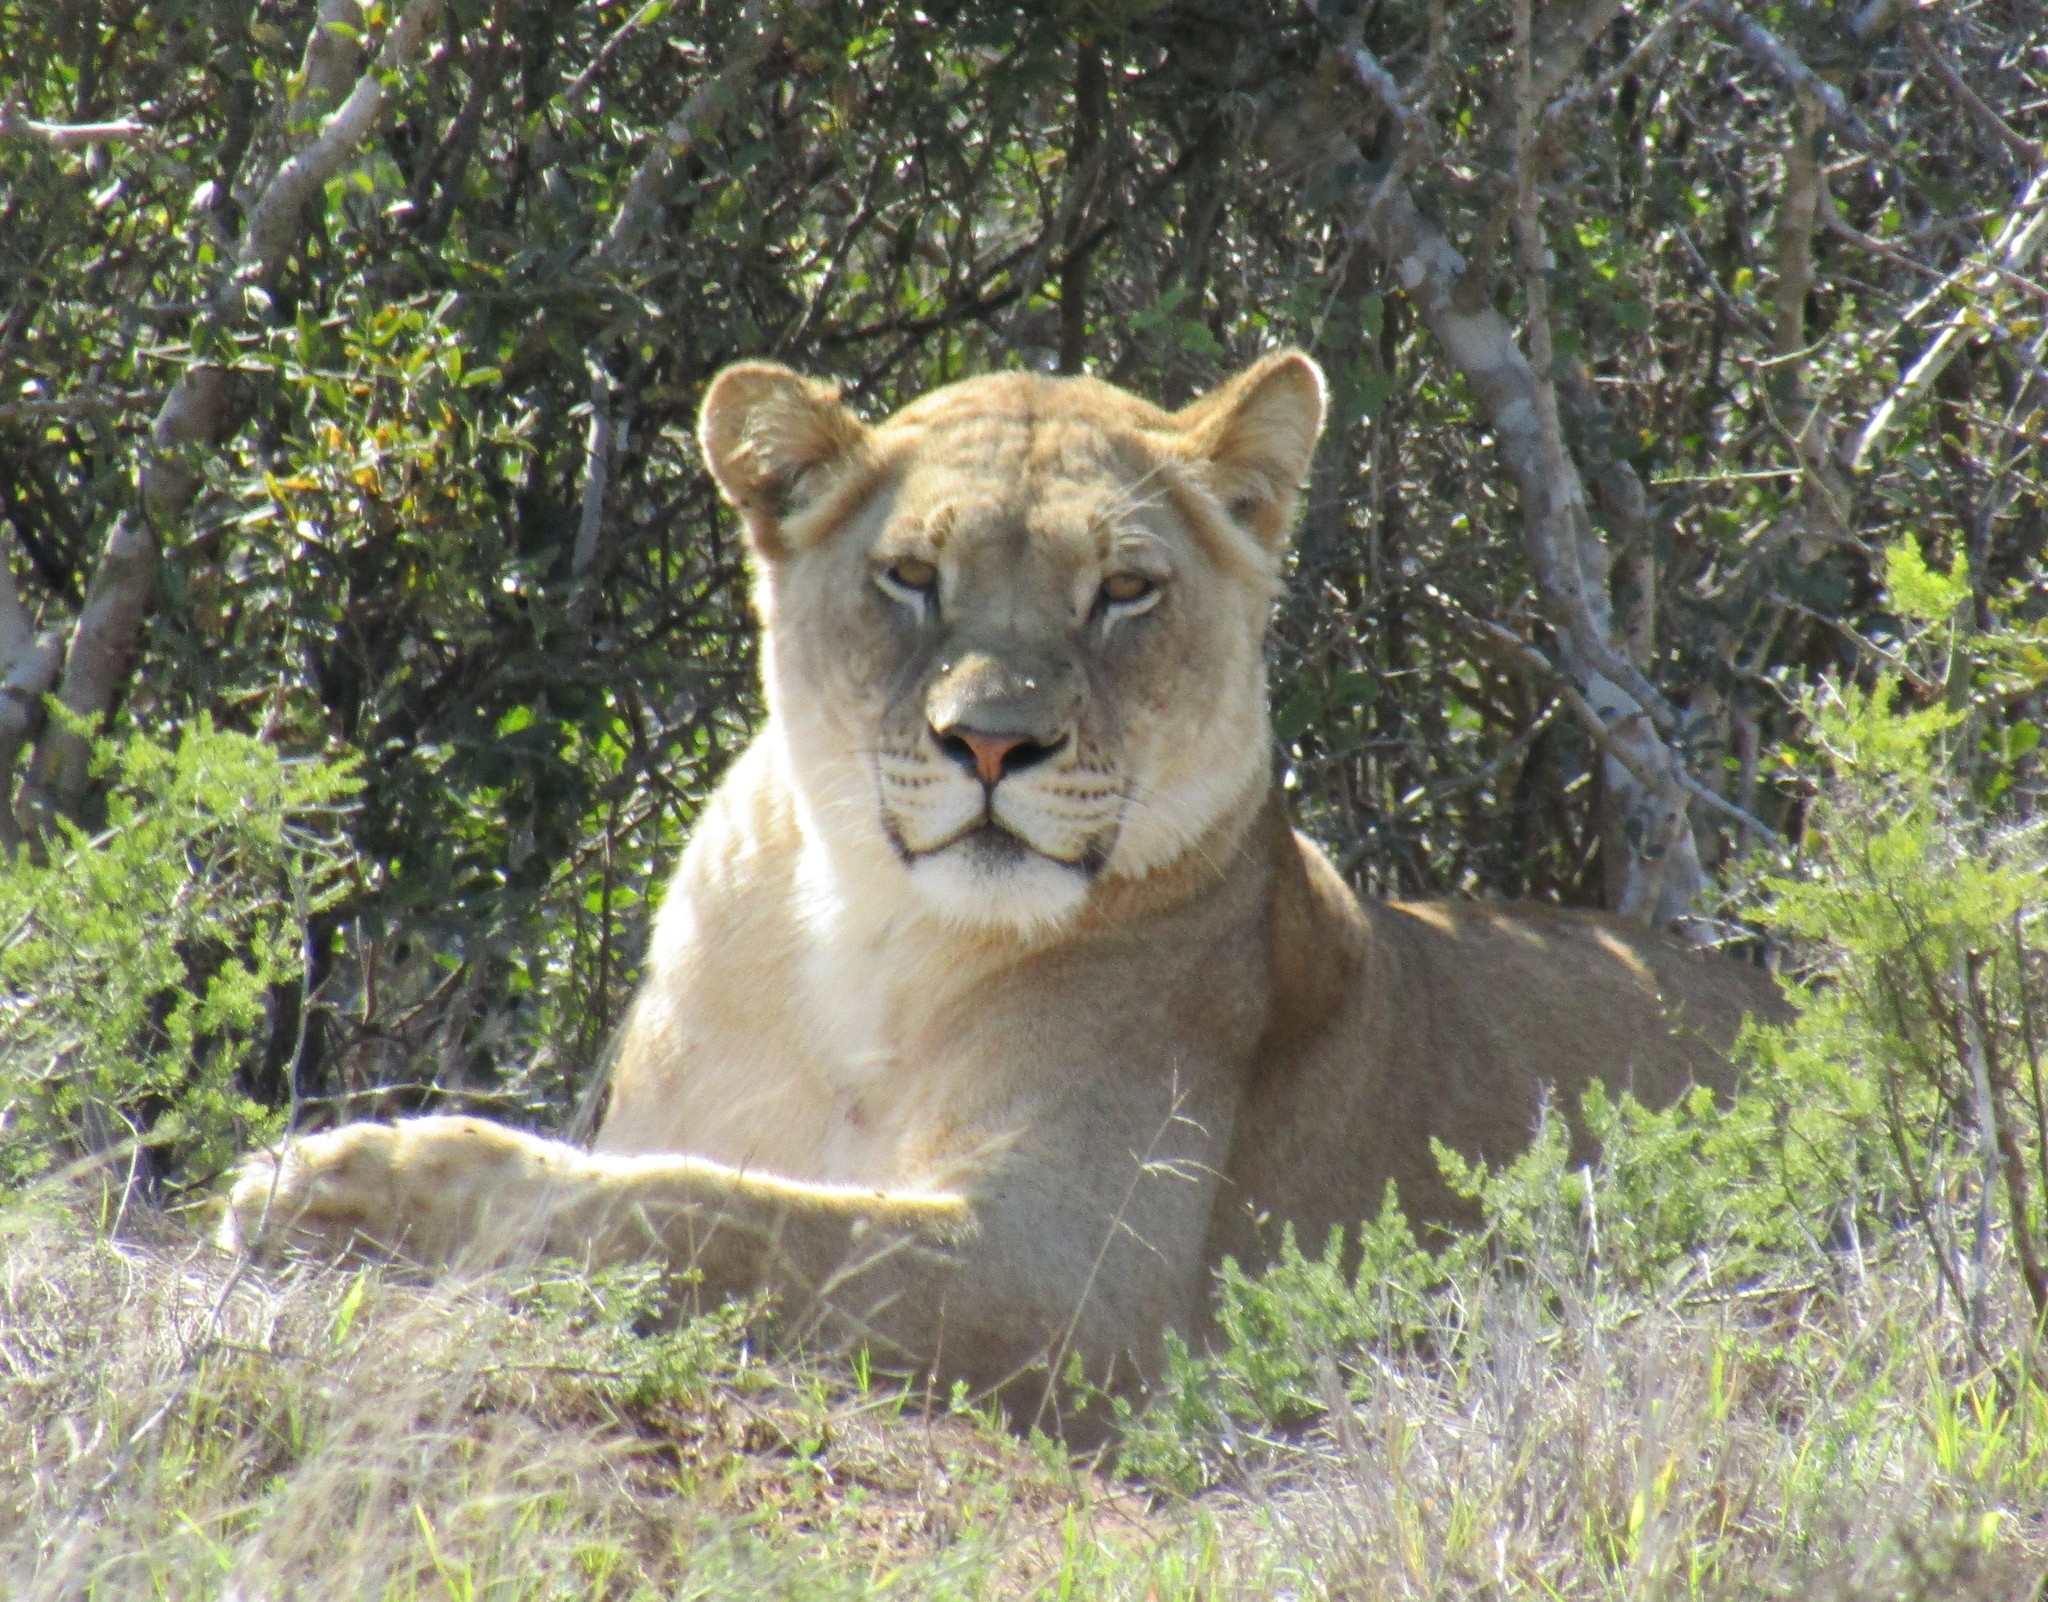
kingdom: Animalia
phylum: Chordata
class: Mammalia
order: Carnivora
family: Felidae
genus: Panthera
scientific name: Panthera leo
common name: Lion
